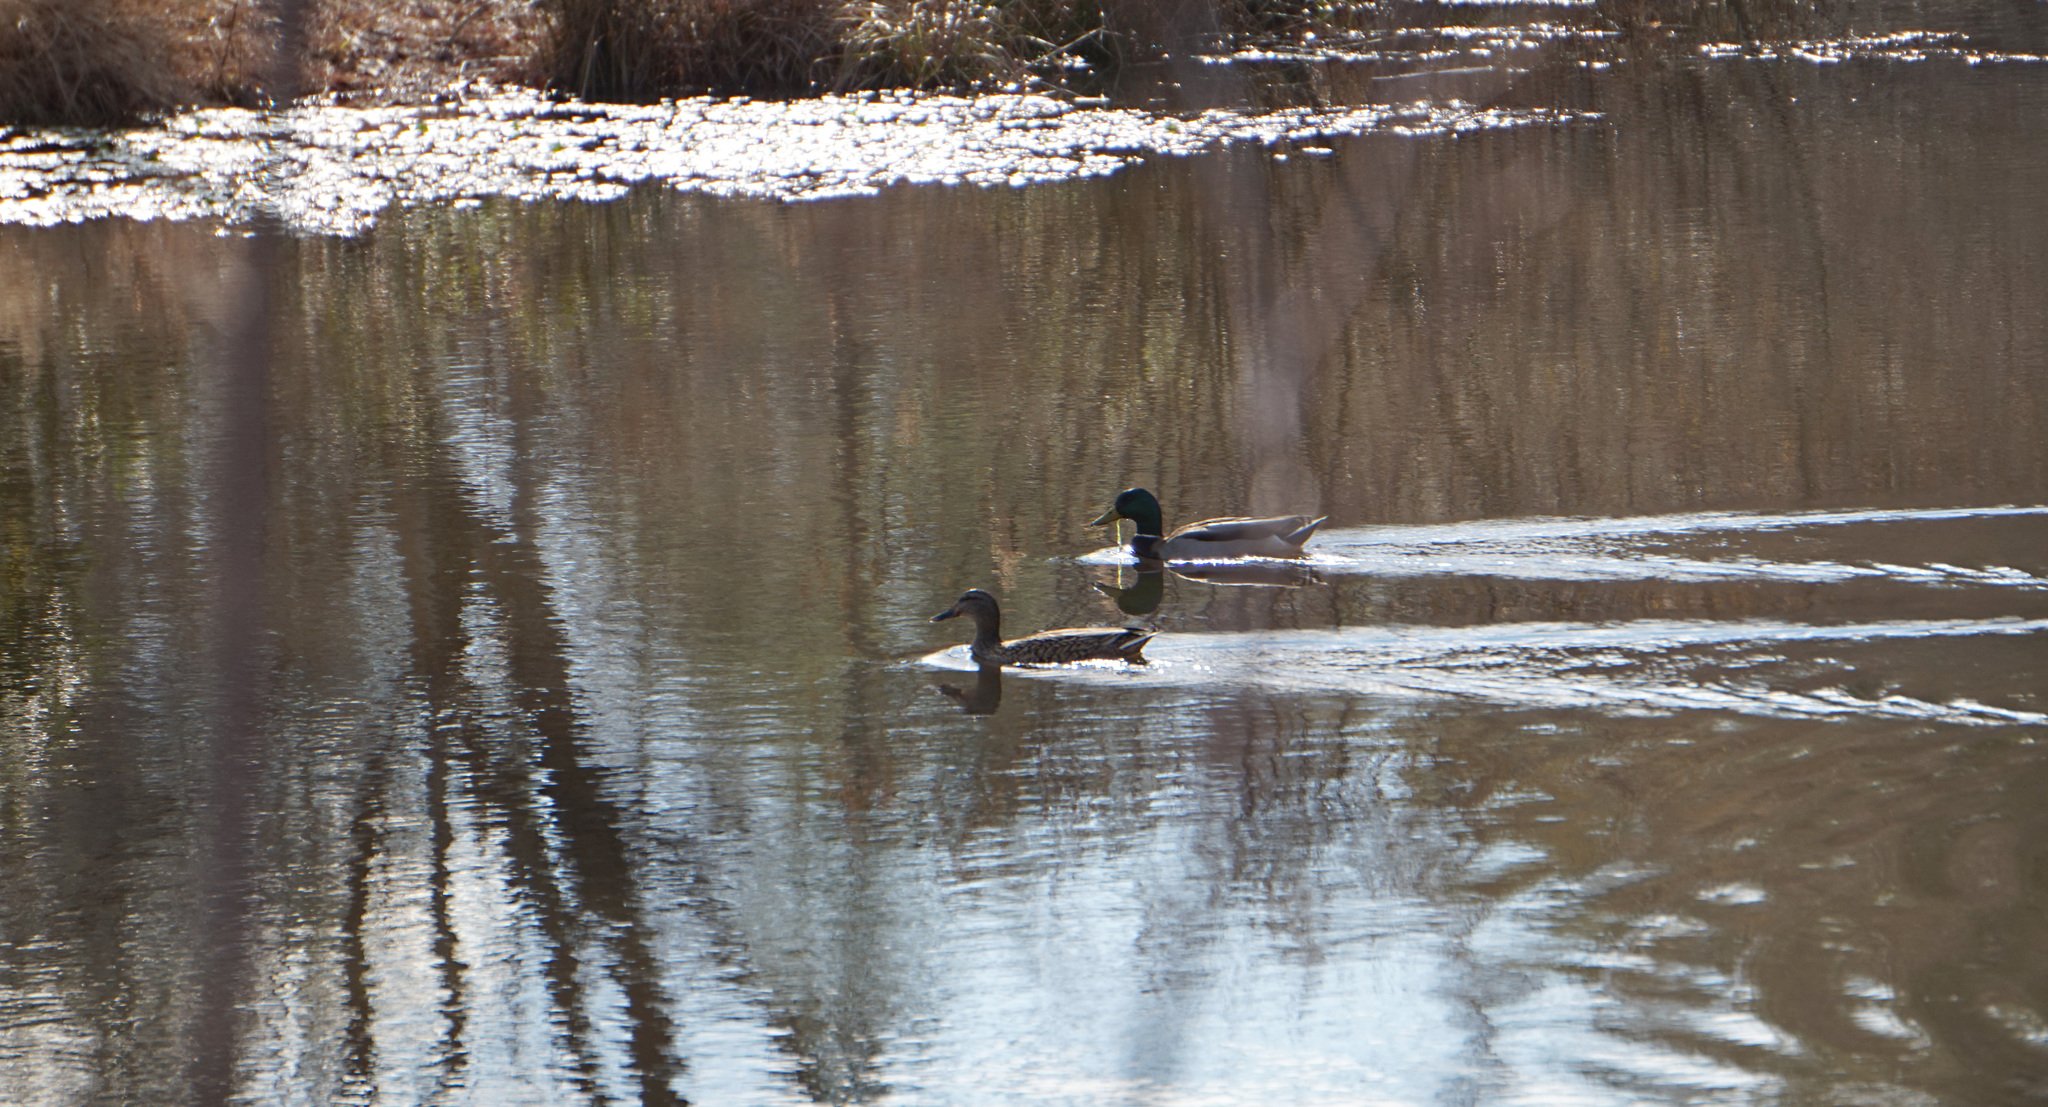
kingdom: Animalia
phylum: Chordata
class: Aves
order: Anseriformes
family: Anatidae
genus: Anas
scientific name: Anas platyrhynchos
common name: Mallard
